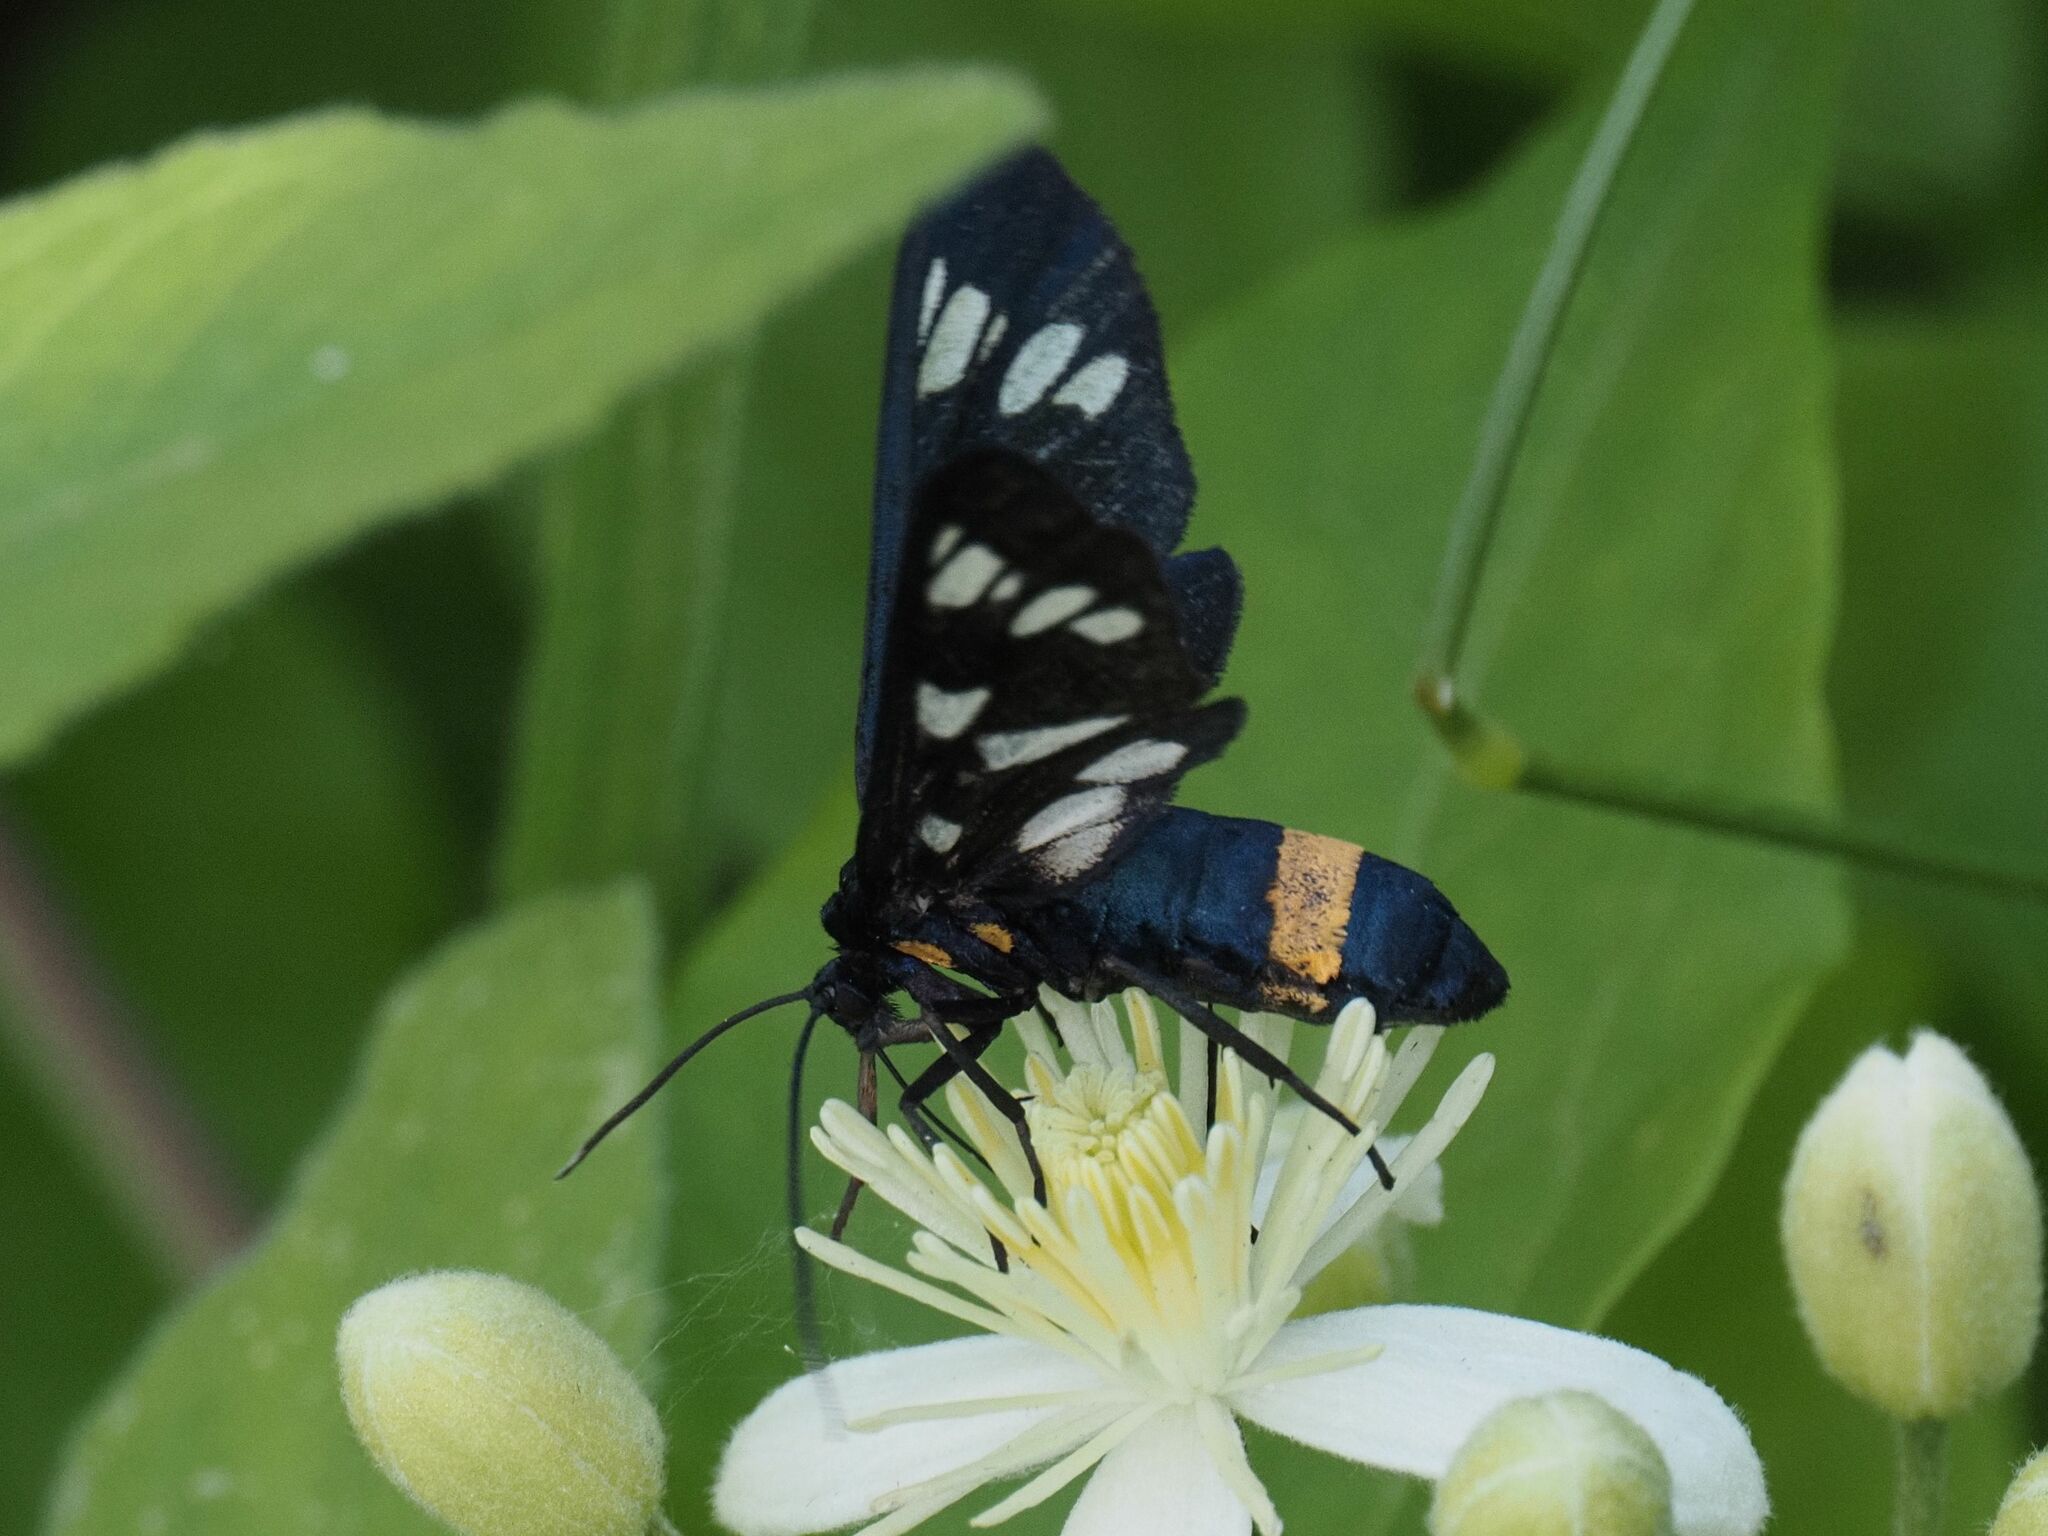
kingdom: Animalia
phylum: Arthropoda
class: Insecta
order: Lepidoptera
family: Erebidae
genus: Amata
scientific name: Amata phegea
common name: Nine-spotted
